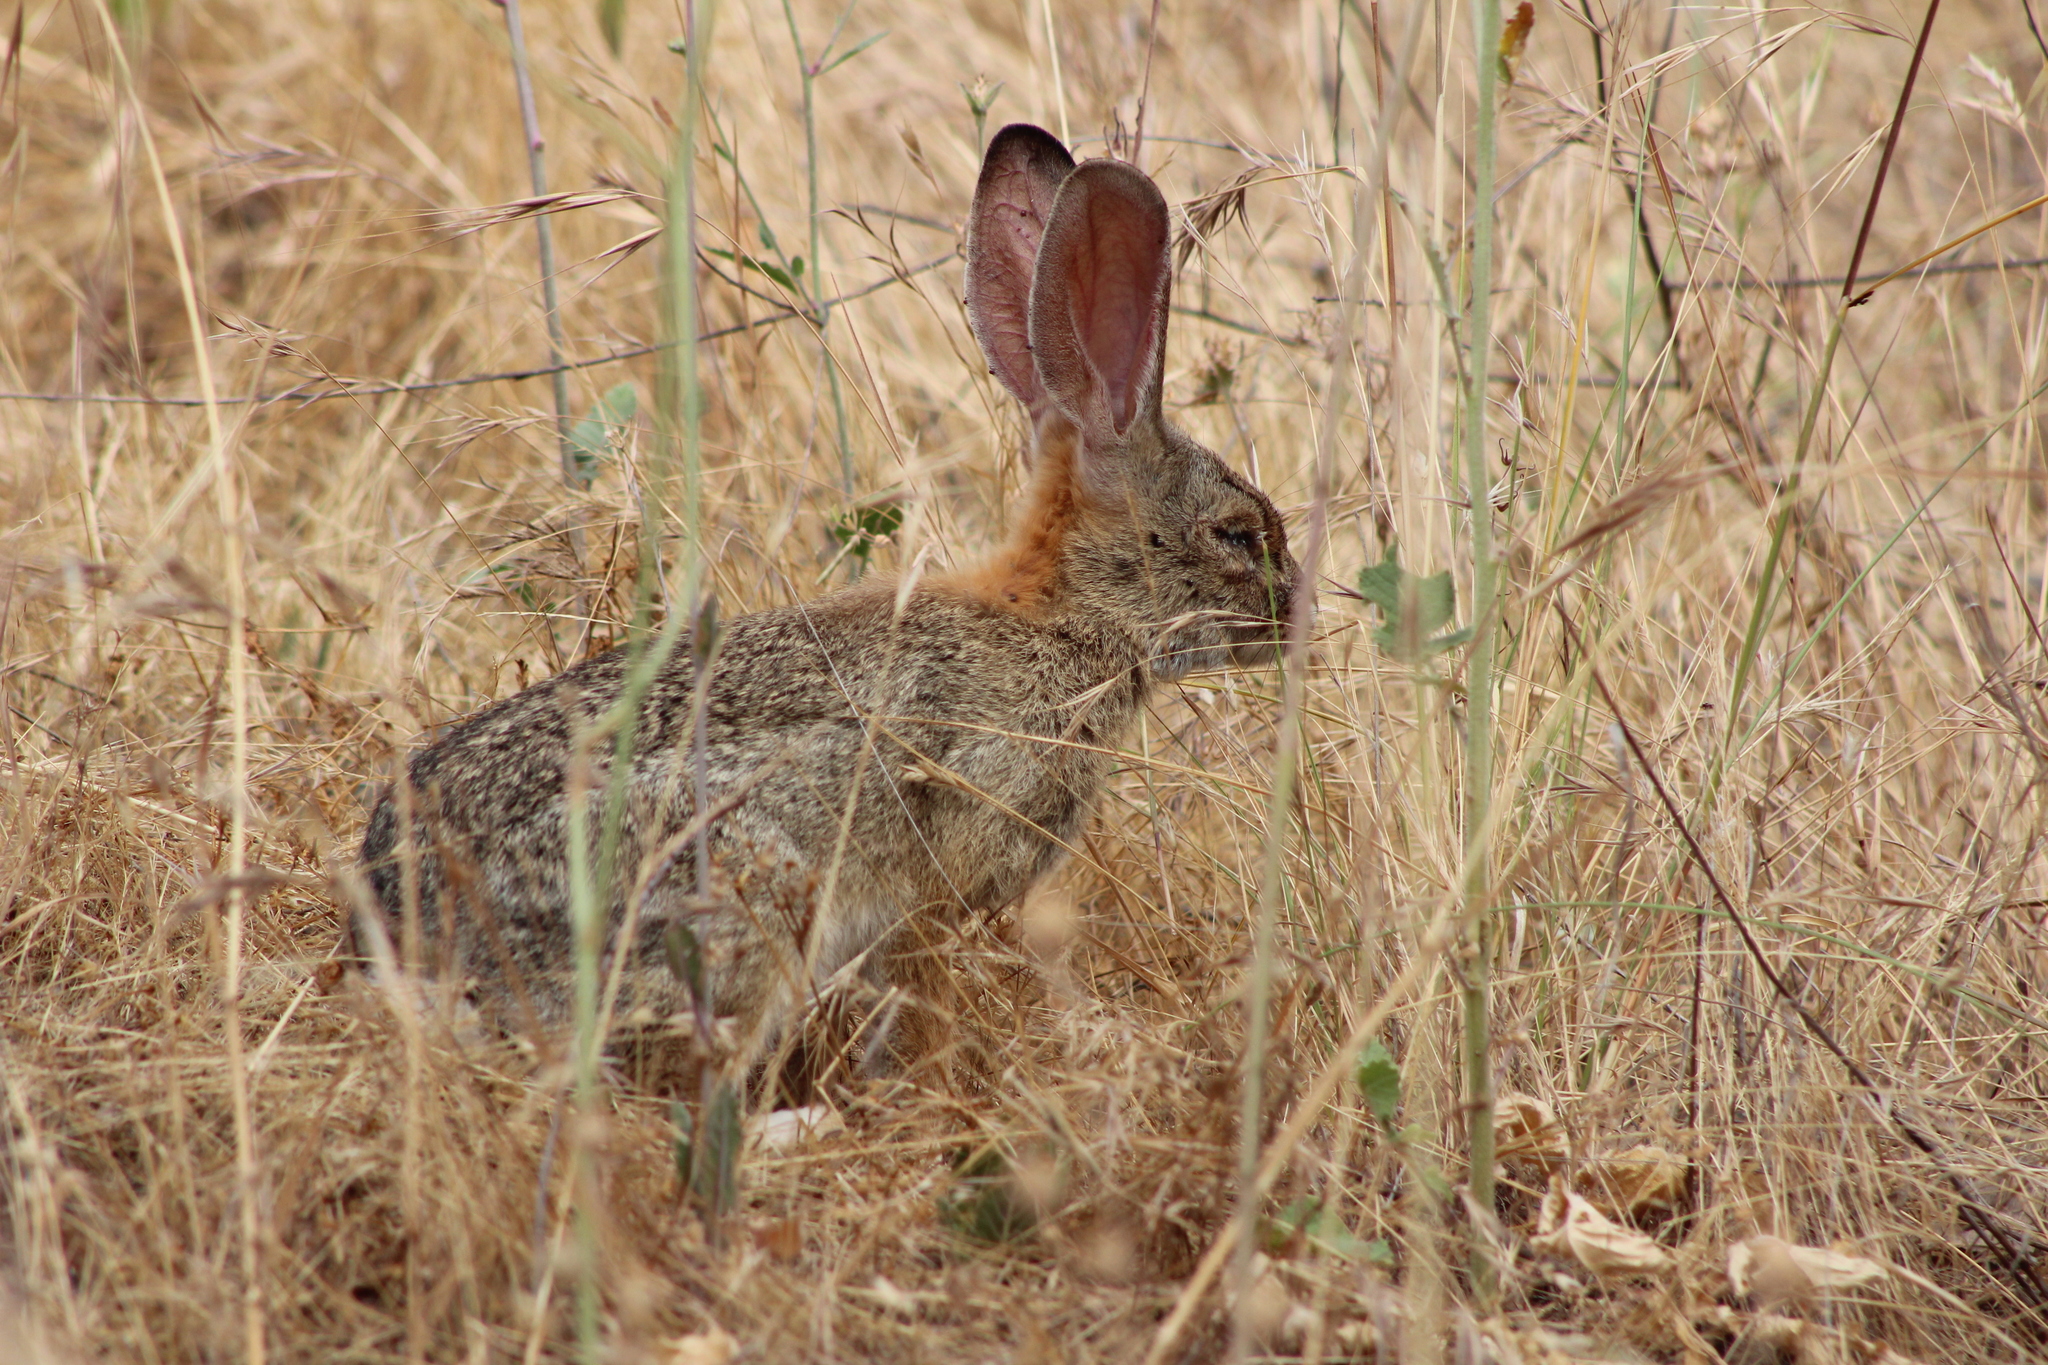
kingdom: Animalia
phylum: Chordata
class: Mammalia
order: Lagomorpha
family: Leporidae
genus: Sylvilagus
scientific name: Sylvilagus audubonii
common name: Desert cottontail
